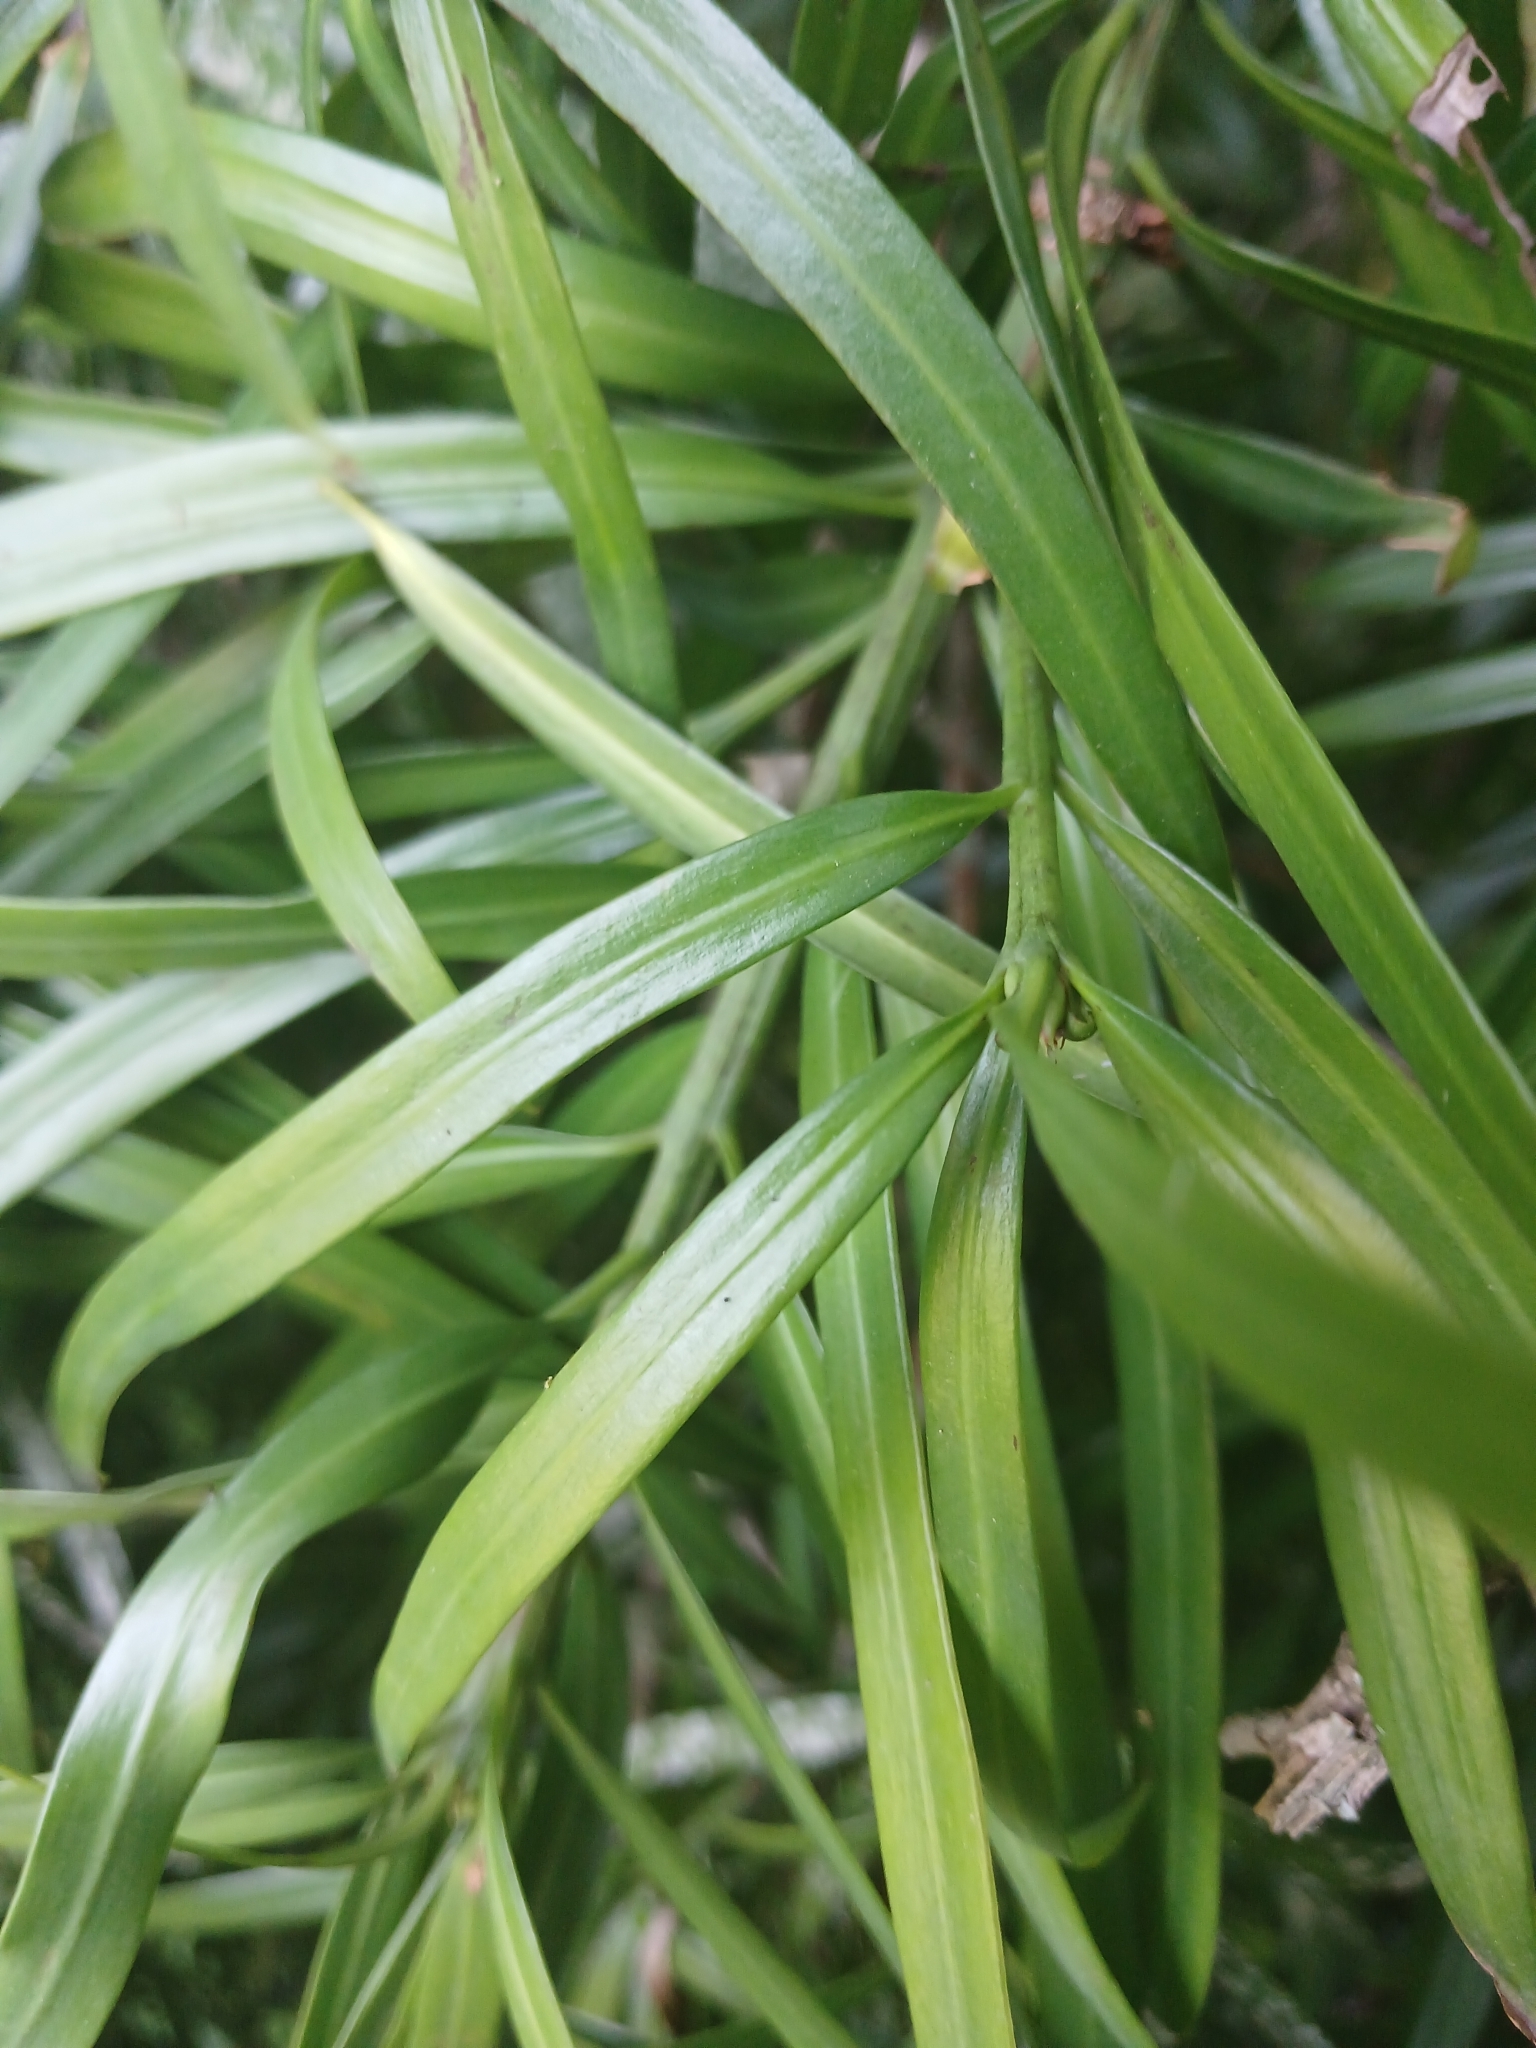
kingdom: Plantae
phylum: Tracheophyta
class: Pinopsida
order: Pinales
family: Podocarpaceae
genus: Podocarpus
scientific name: Podocarpus henkelii
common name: Henkel's yellowwood
